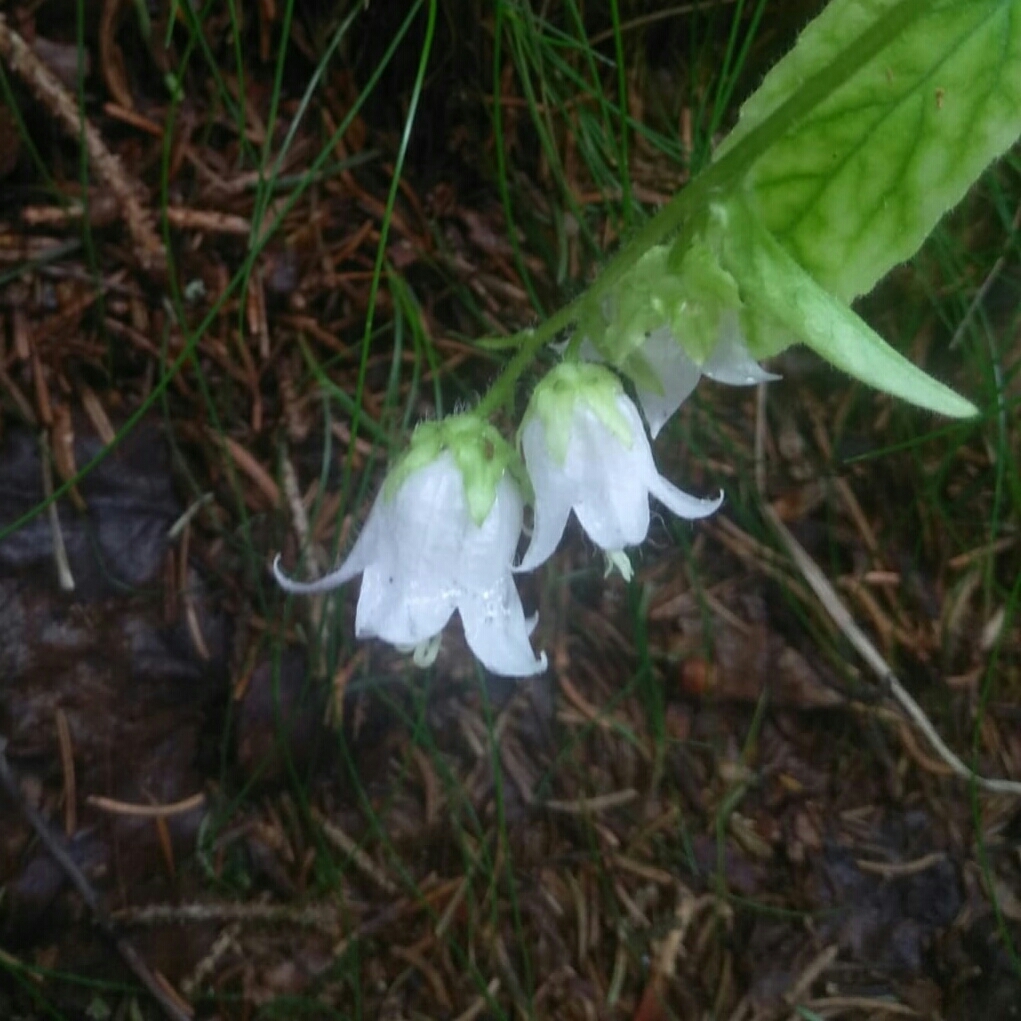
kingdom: Plantae
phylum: Tracheophyta
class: Magnoliopsida
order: Asterales
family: Campanulaceae
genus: Campanula
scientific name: Campanula barbata
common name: Bearded bellflower
